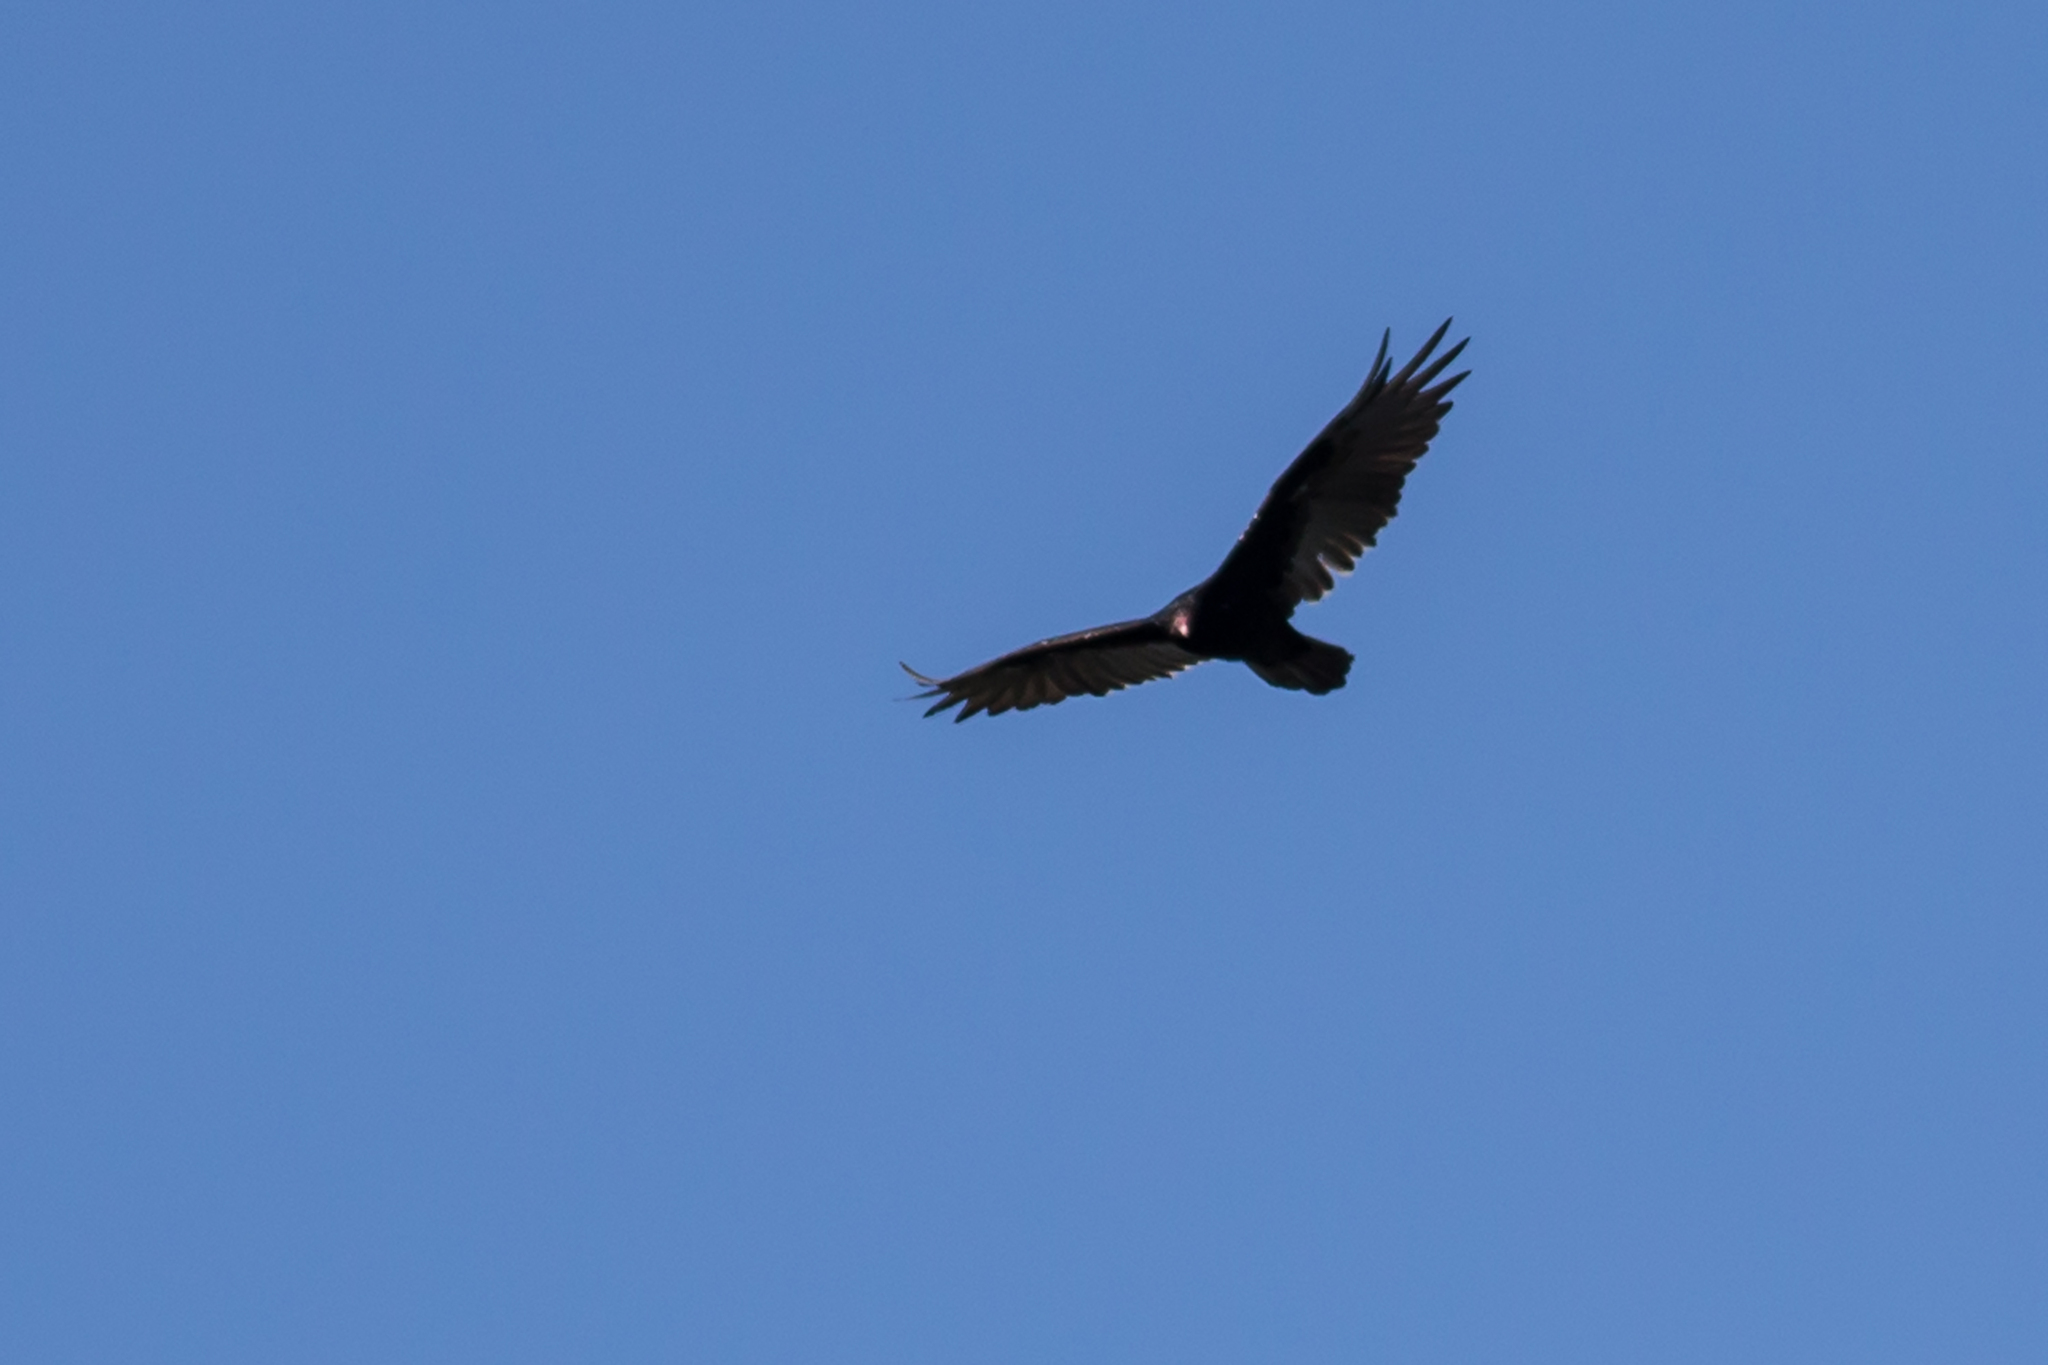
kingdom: Animalia
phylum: Chordata
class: Aves
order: Accipitriformes
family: Cathartidae
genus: Cathartes
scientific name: Cathartes aura
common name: Turkey vulture
